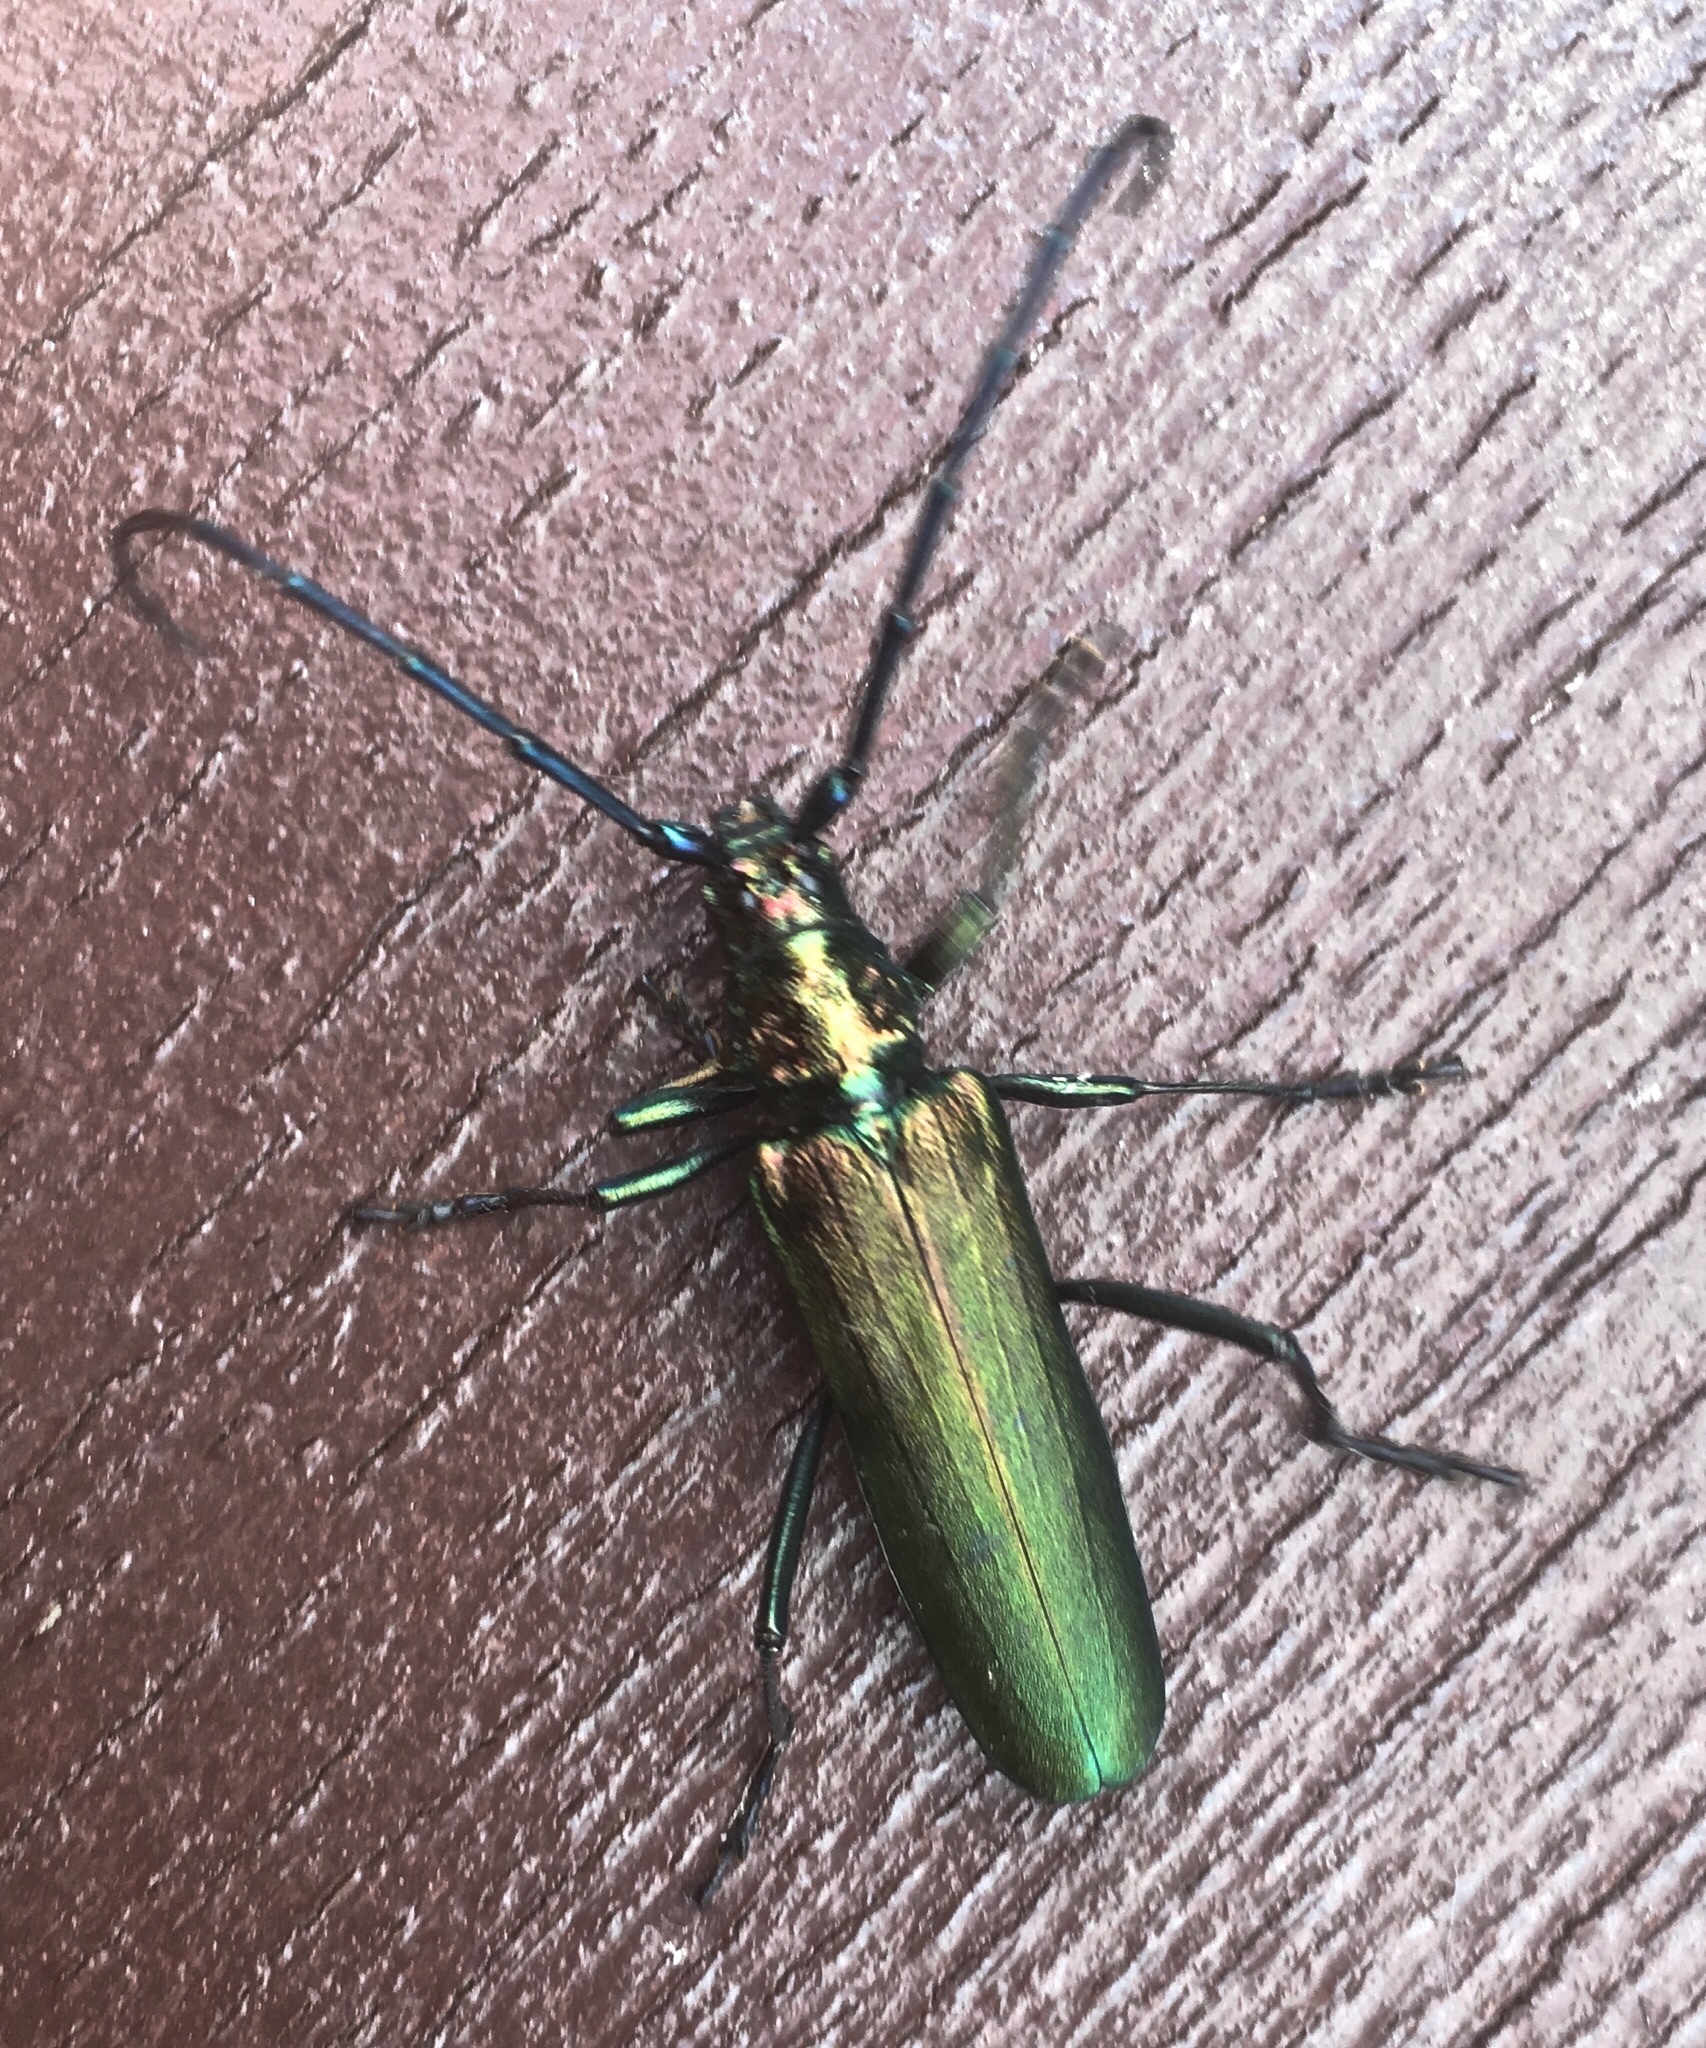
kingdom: Animalia
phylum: Arthropoda
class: Insecta
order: Coleoptera
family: Cerambycidae
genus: Aromia
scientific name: Aromia moschata
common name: Musk beetle
